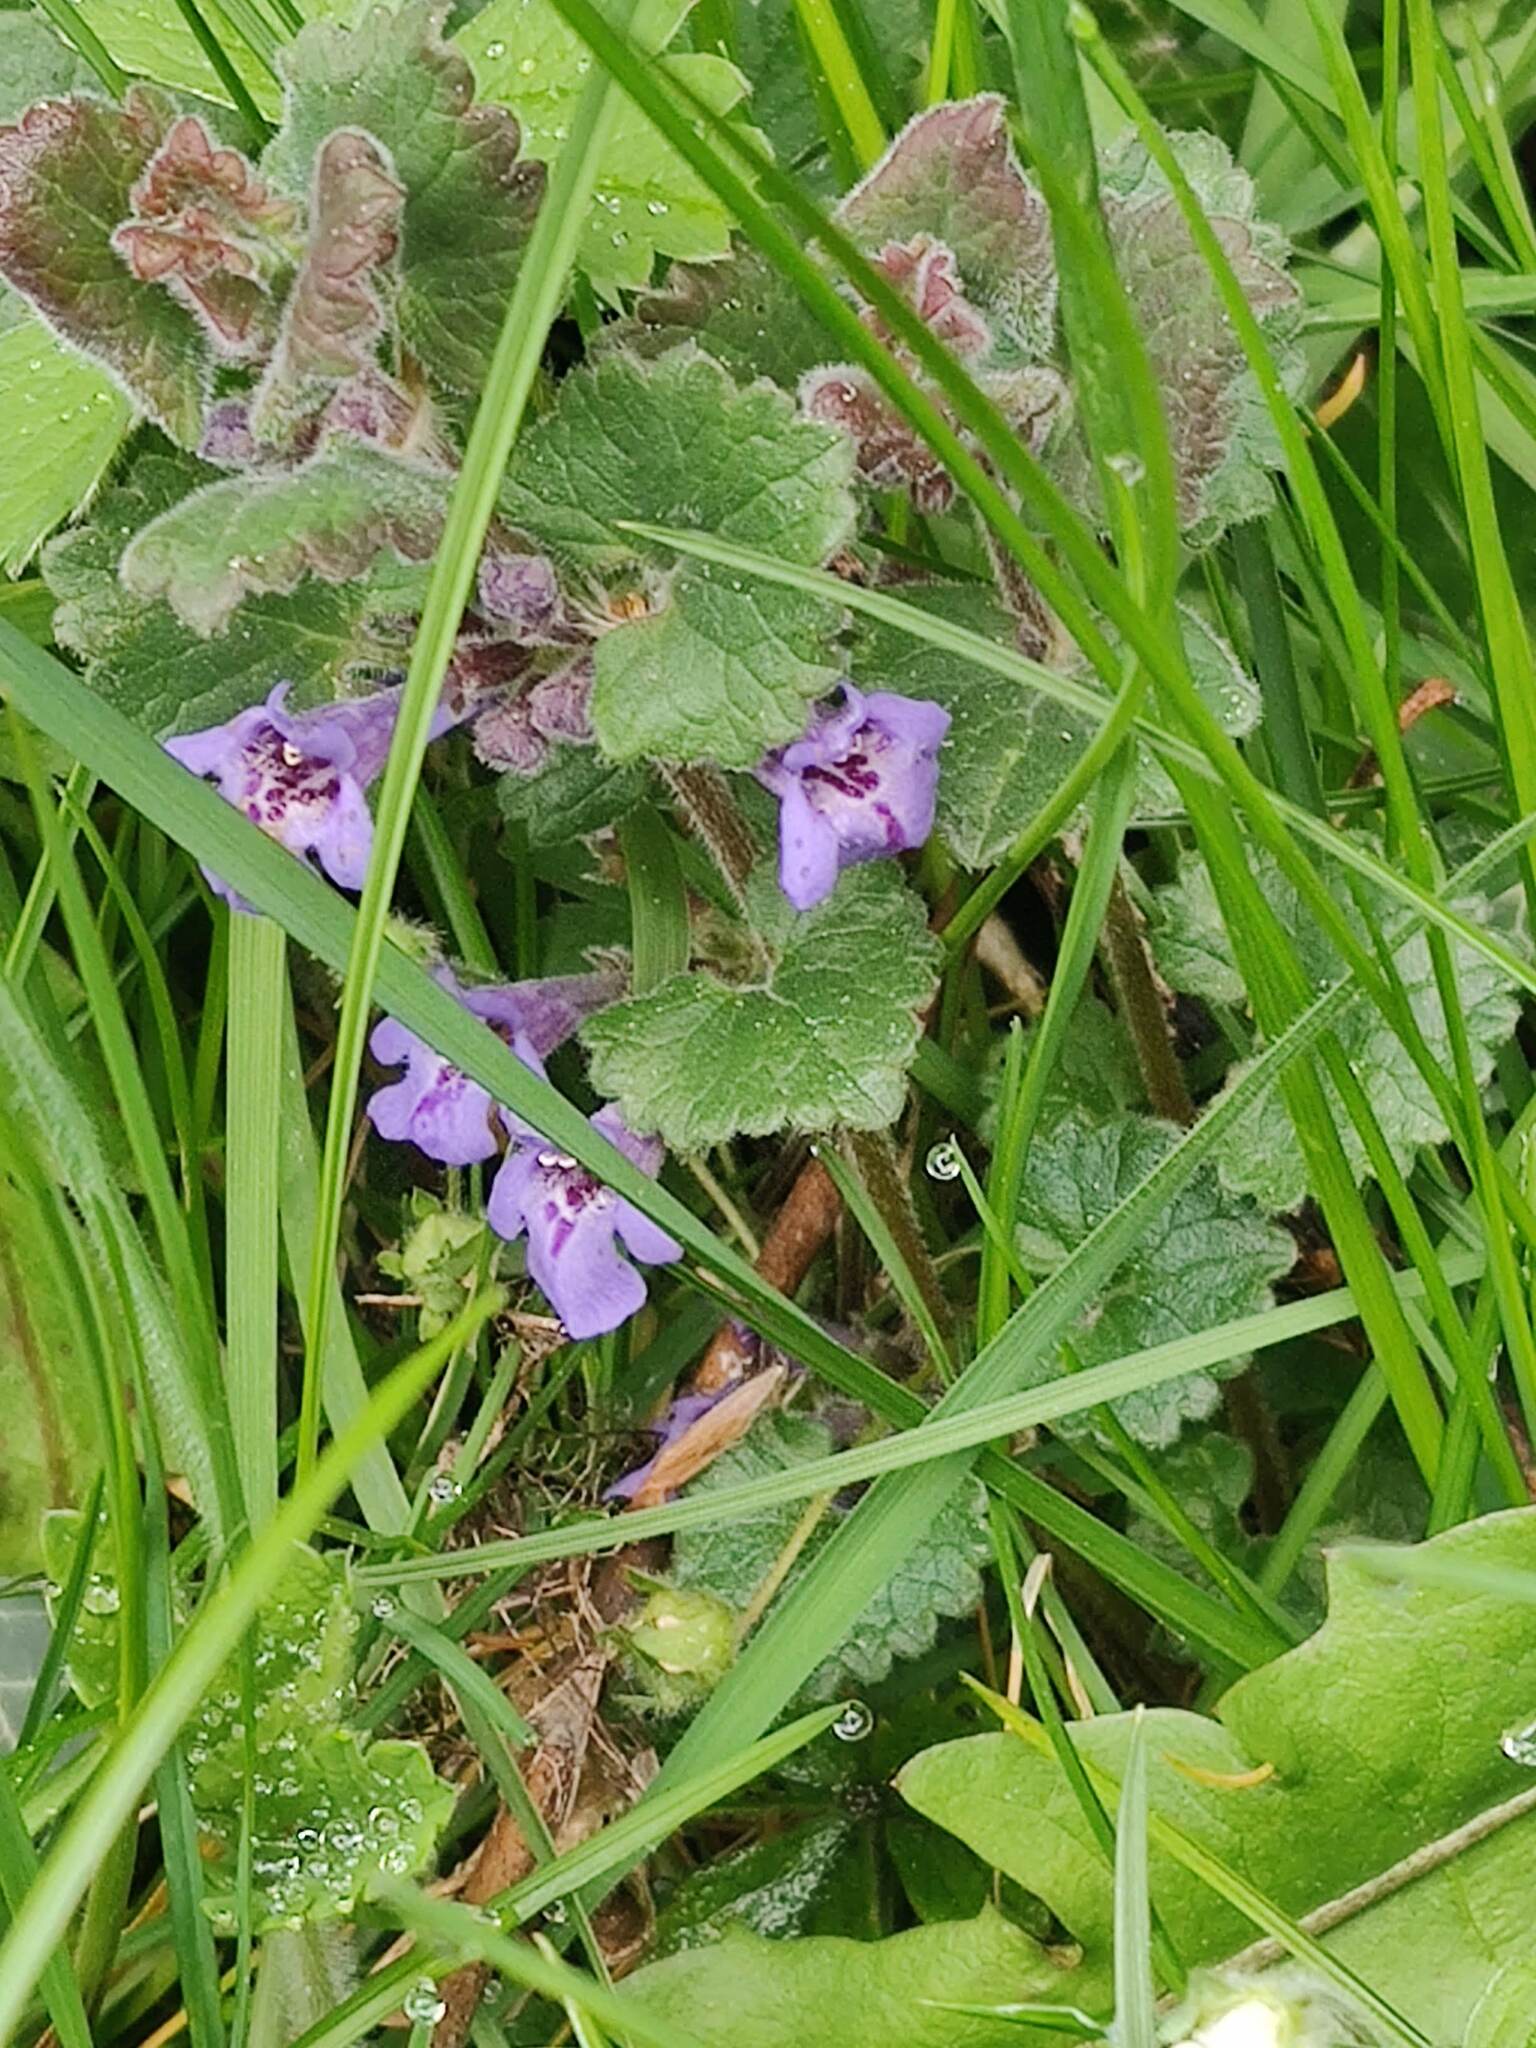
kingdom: Plantae
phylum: Tracheophyta
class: Magnoliopsida
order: Lamiales
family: Lamiaceae
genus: Glechoma
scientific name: Glechoma hederacea
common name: Ground ivy
